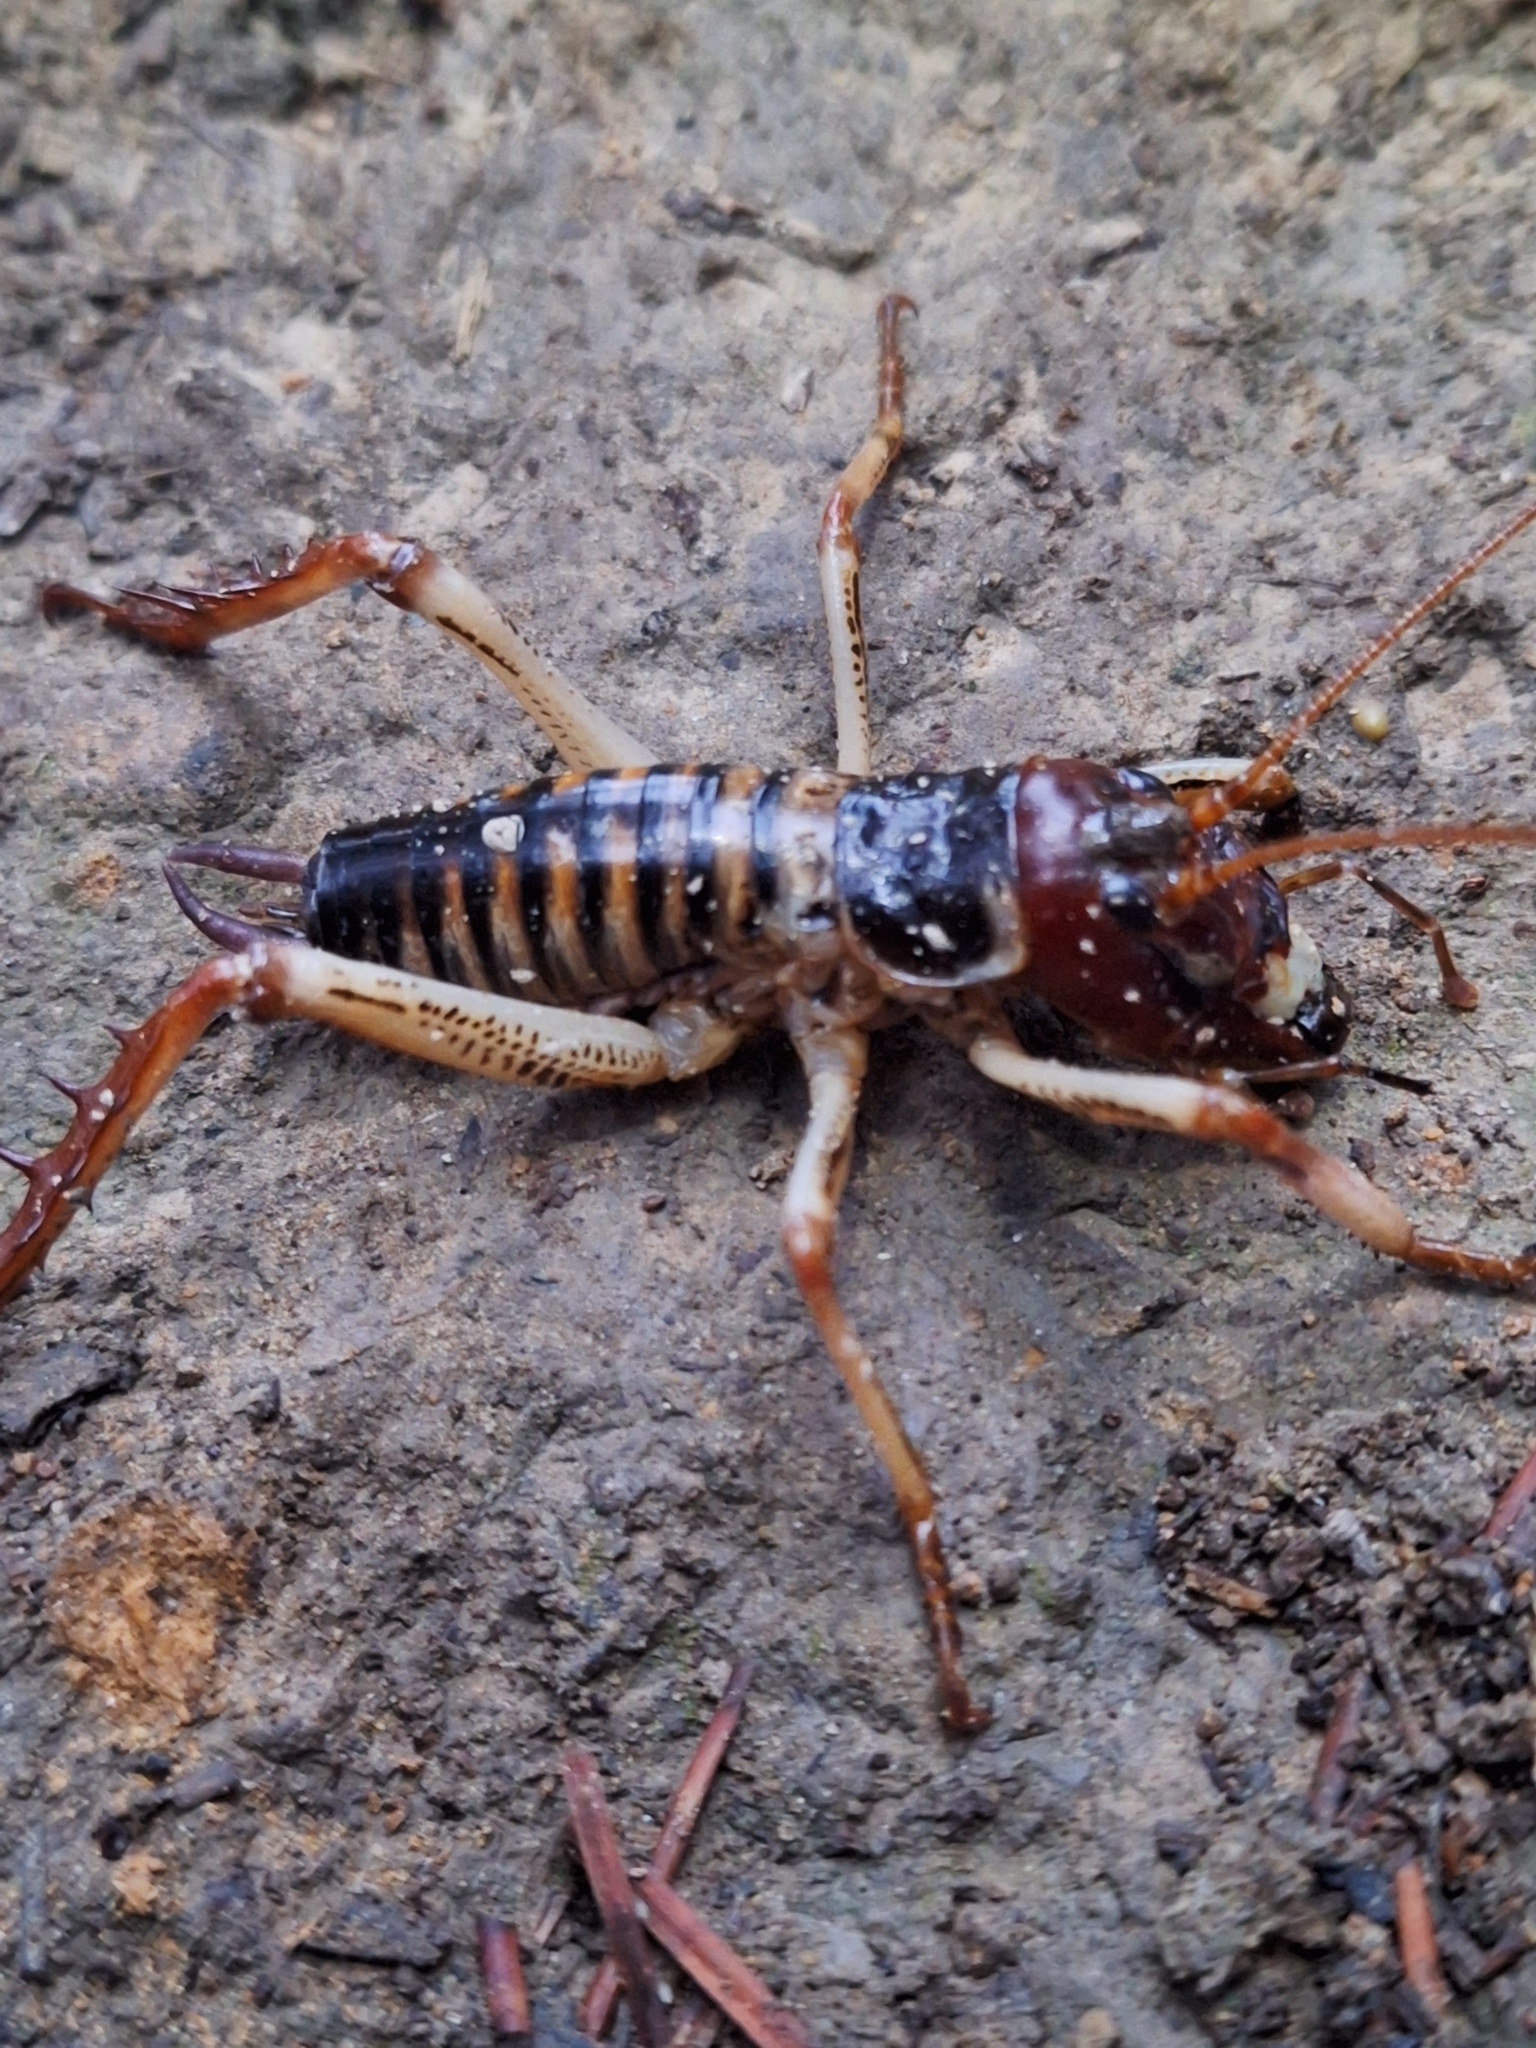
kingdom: Animalia
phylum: Arthropoda
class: Insecta
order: Orthoptera
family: Anostostomatidae
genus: Hemideina
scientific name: Hemideina crassidens
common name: Wellington tree weta
